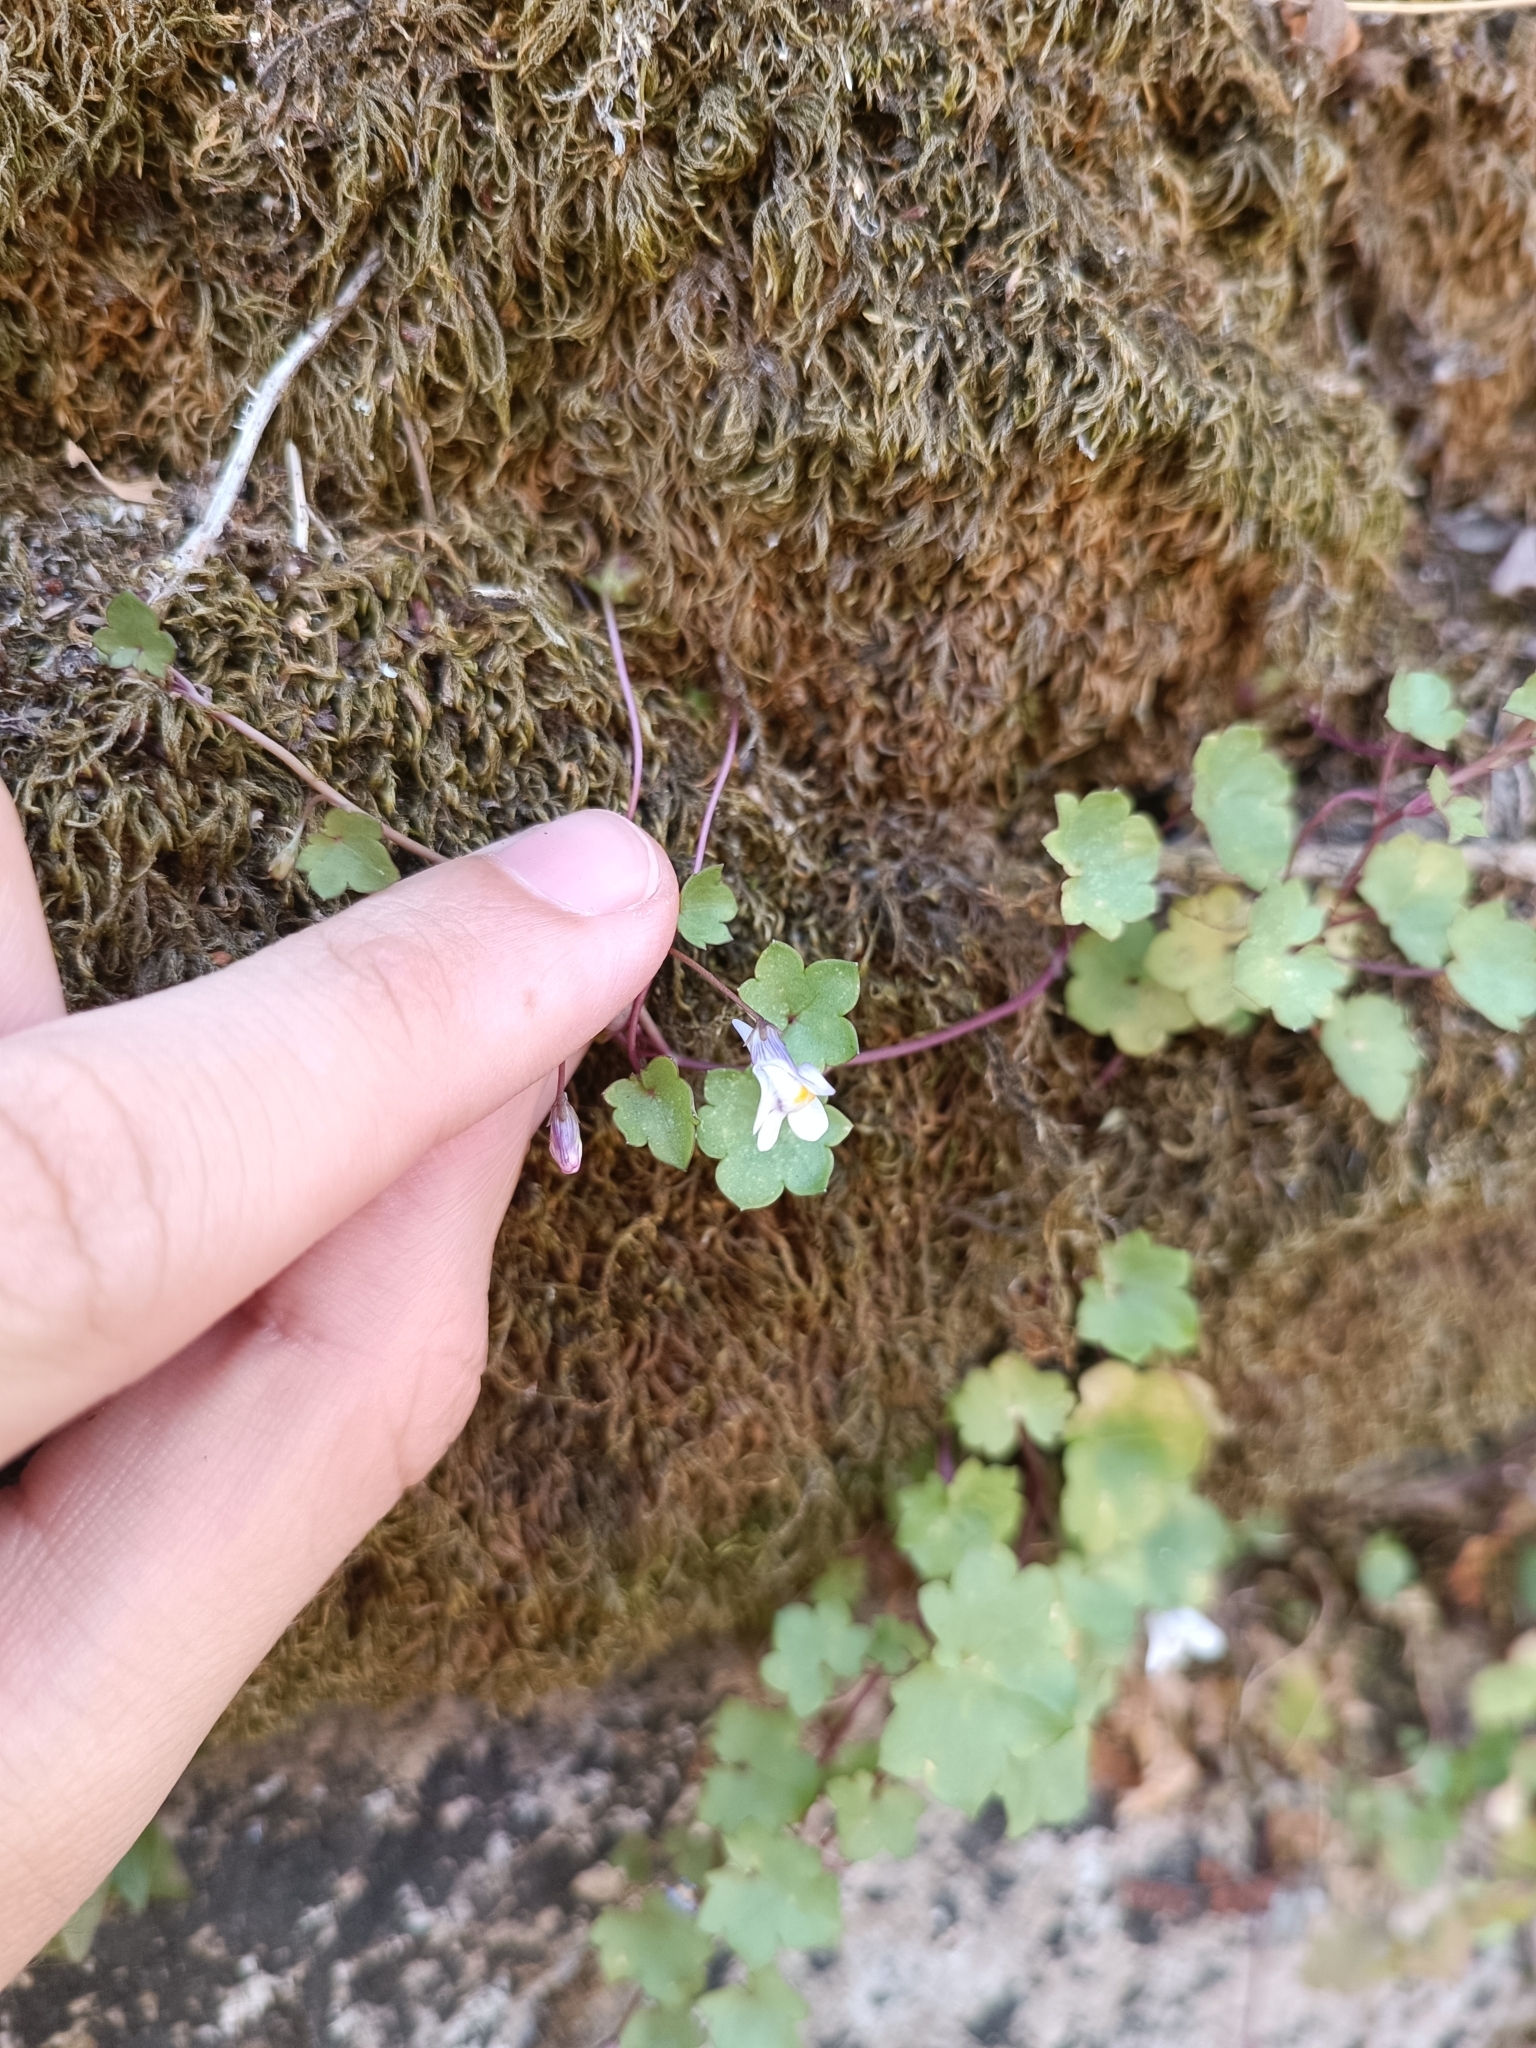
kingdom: Plantae
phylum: Tracheophyta
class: Magnoliopsida
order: Lamiales
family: Plantaginaceae
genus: Cymbalaria
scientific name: Cymbalaria muralis
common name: Ivy-leaved toadflax
